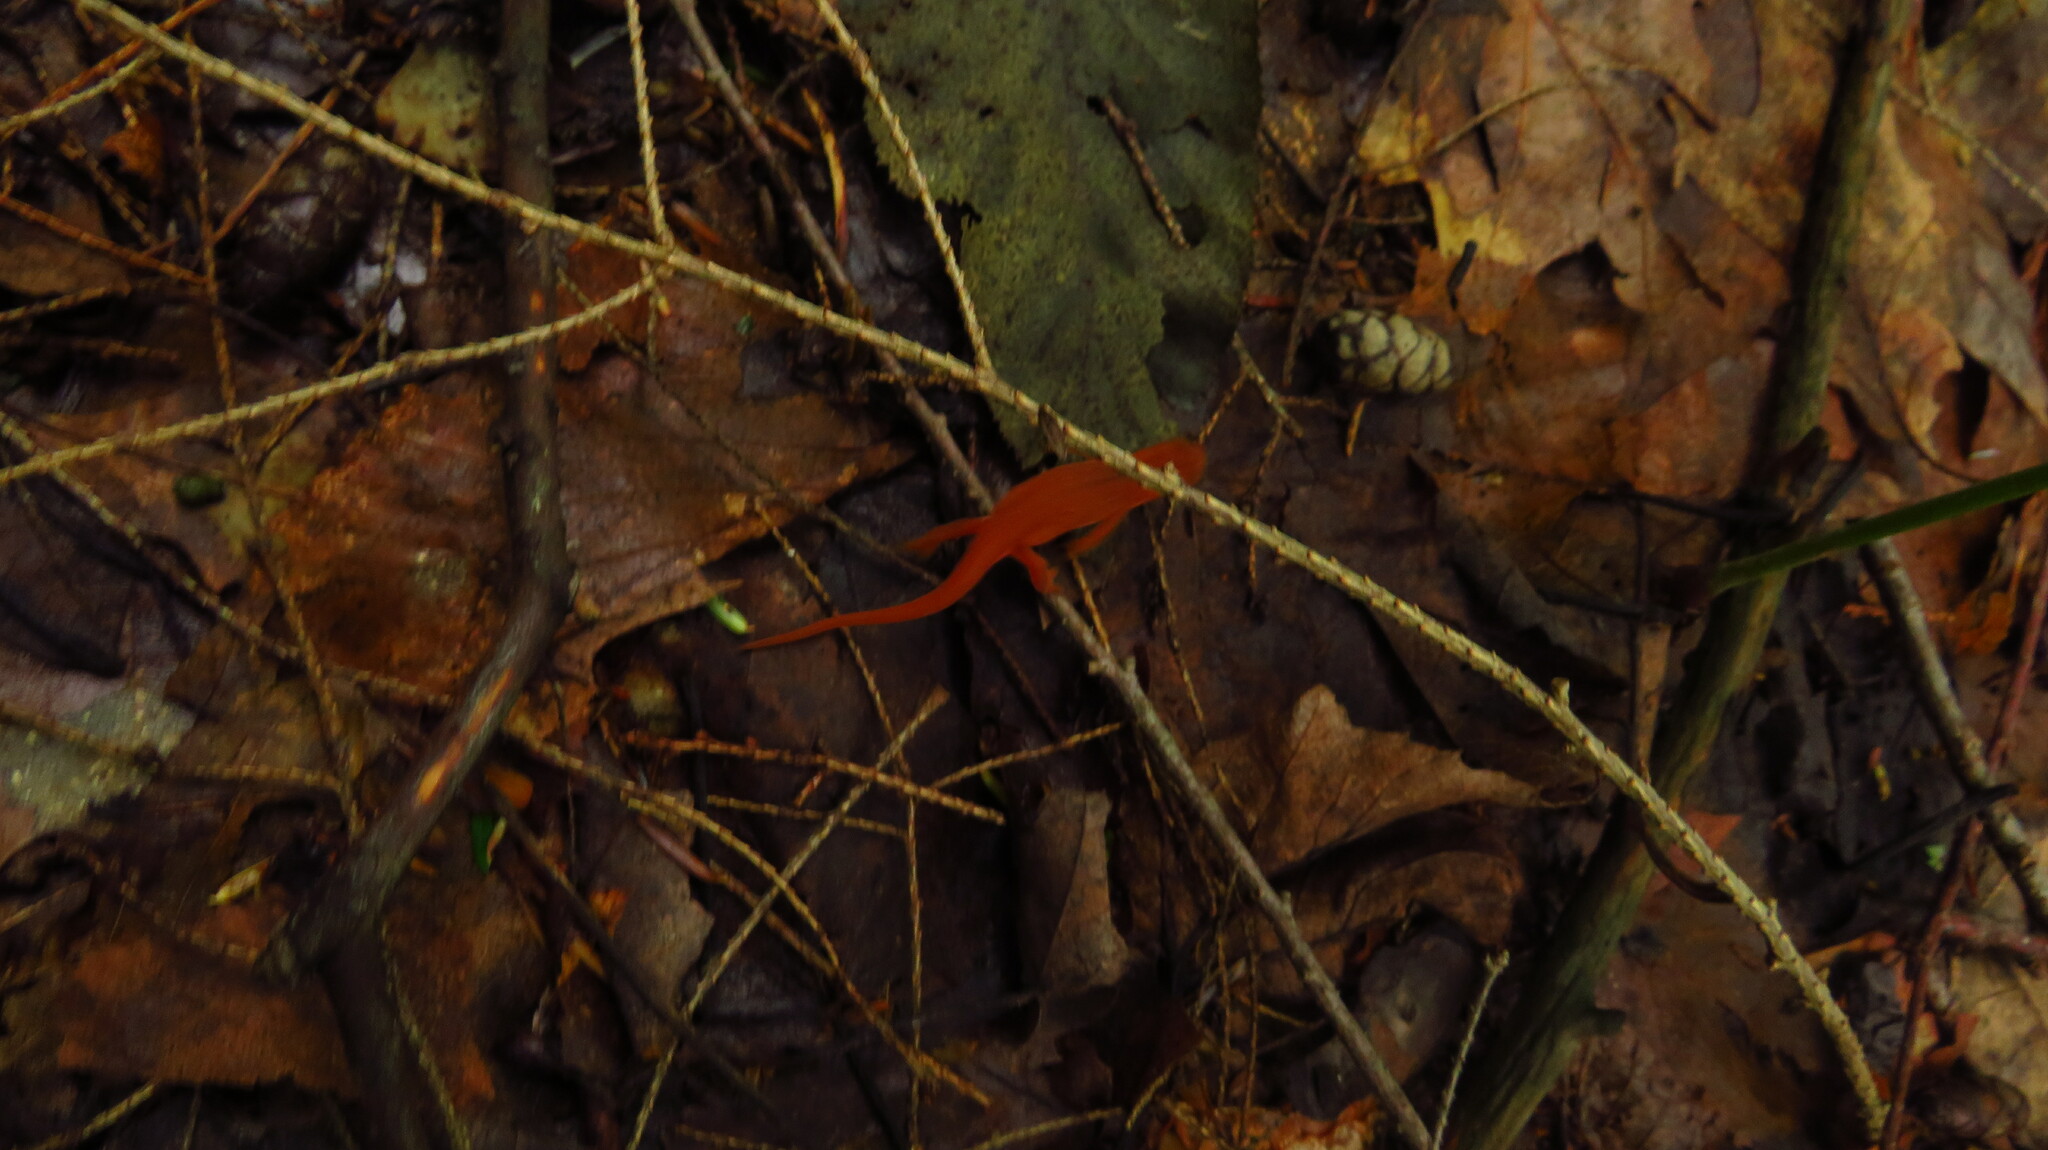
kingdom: Animalia
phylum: Chordata
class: Amphibia
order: Caudata
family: Salamandridae
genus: Notophthalmus
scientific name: Notophthalmus viridescens
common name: Eastern newt
